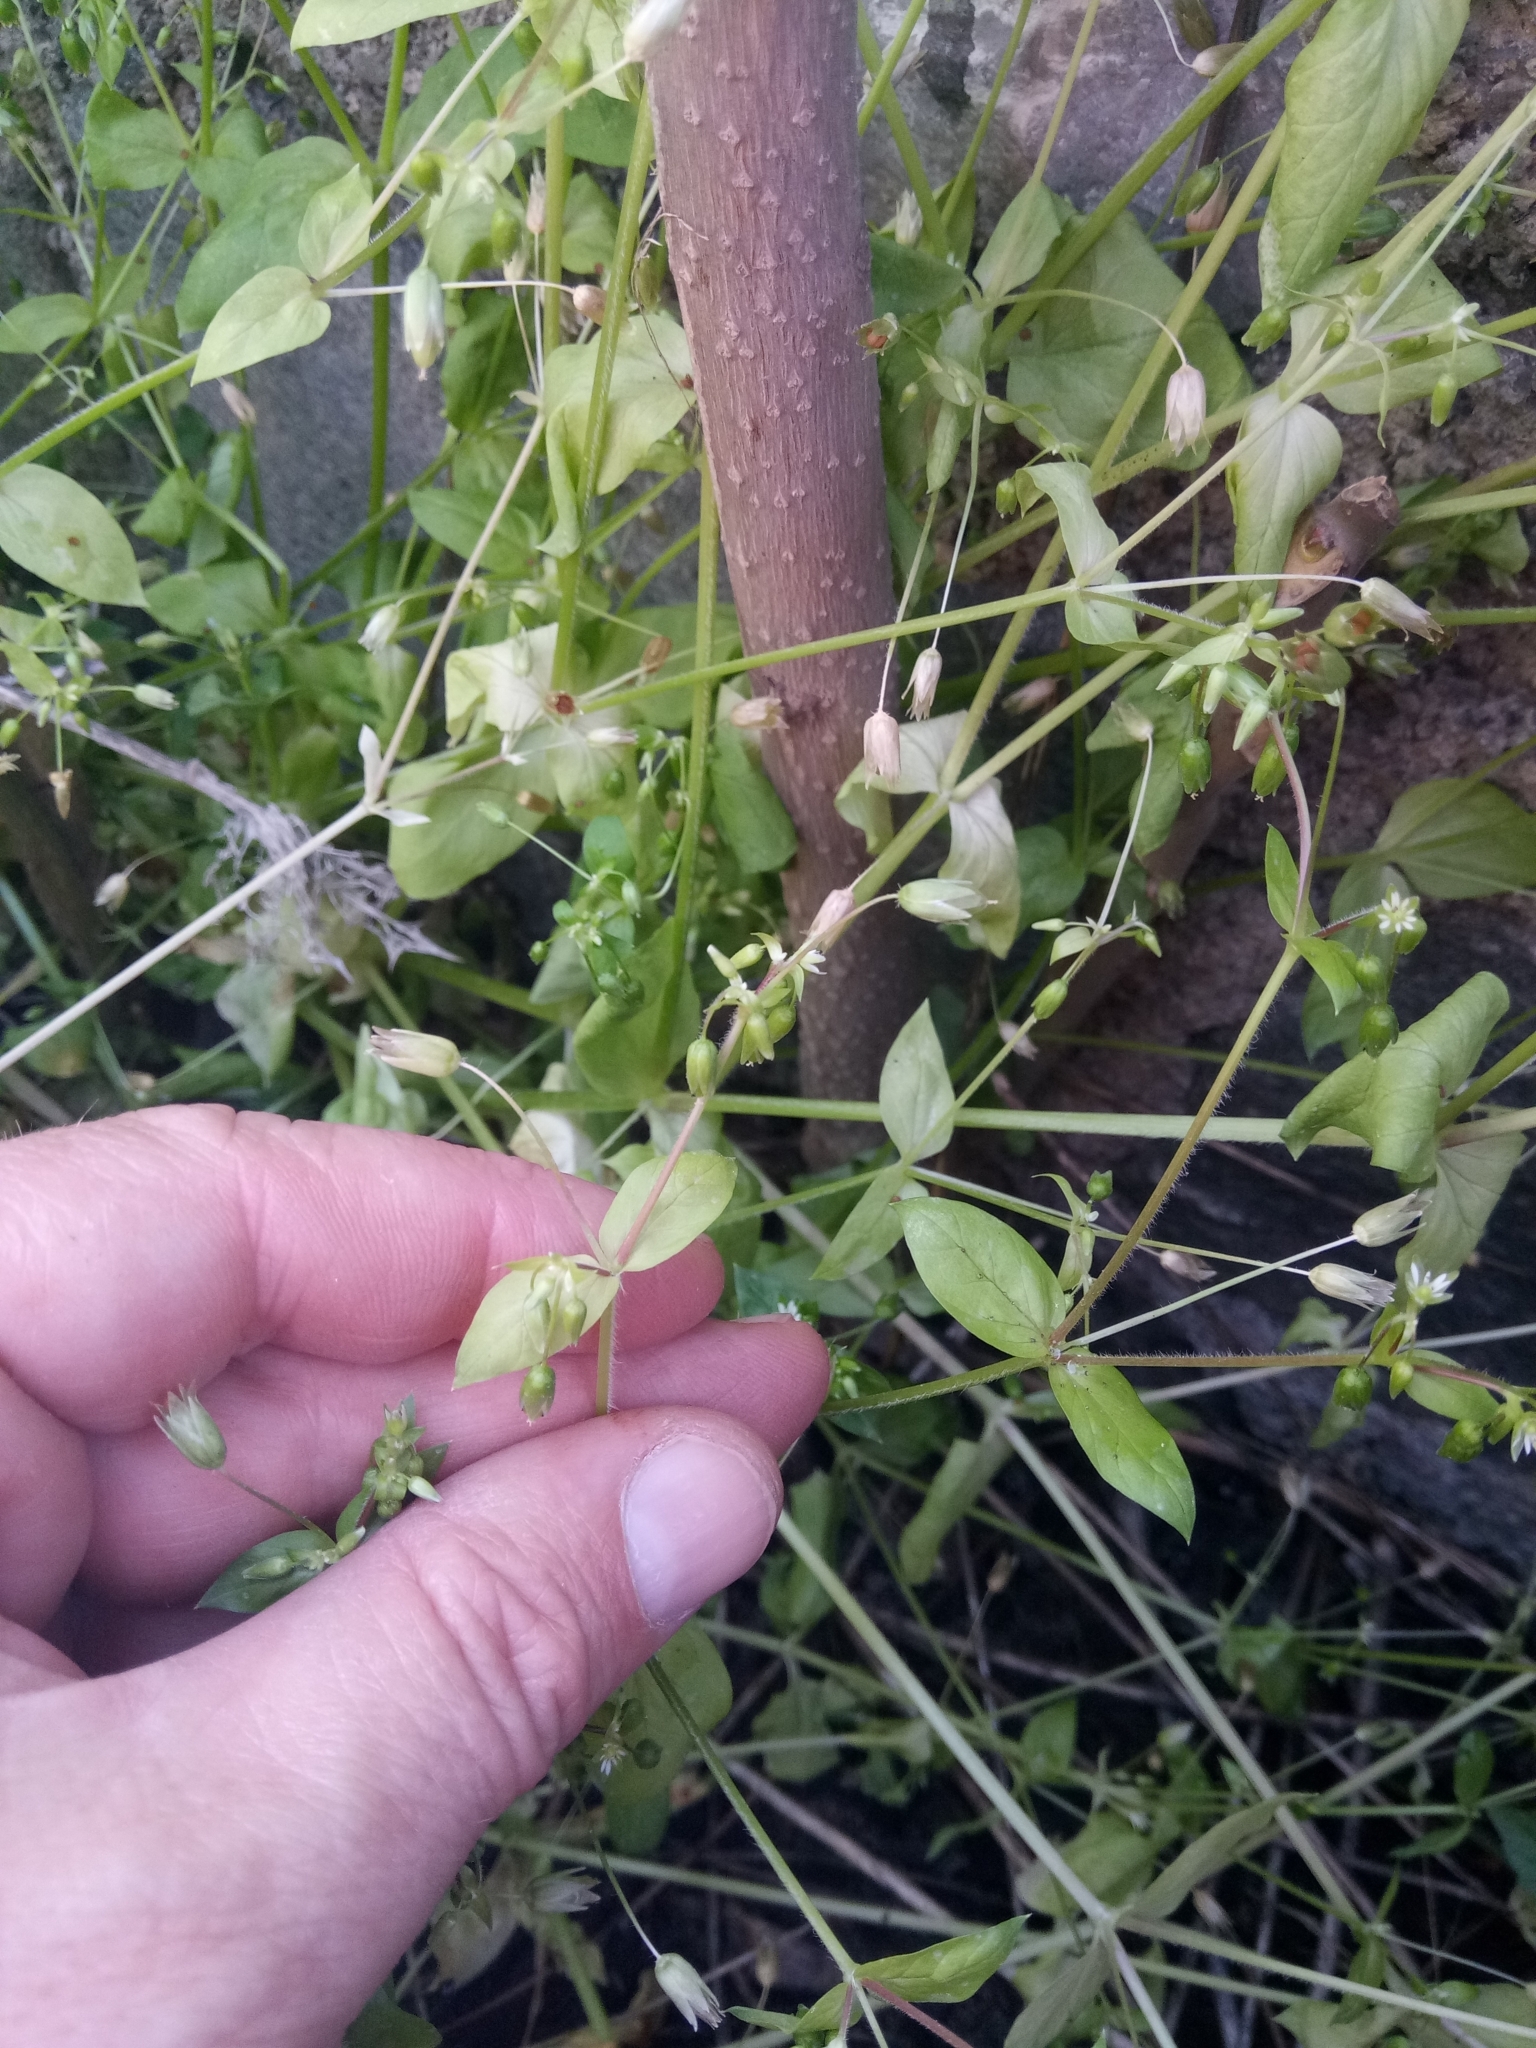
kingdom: Plantae
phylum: Tracheophyta
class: Magnoliopsida
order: Caryophyllales
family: Caryophyllaceae
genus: Stellaria
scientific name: Stellaria apetala
